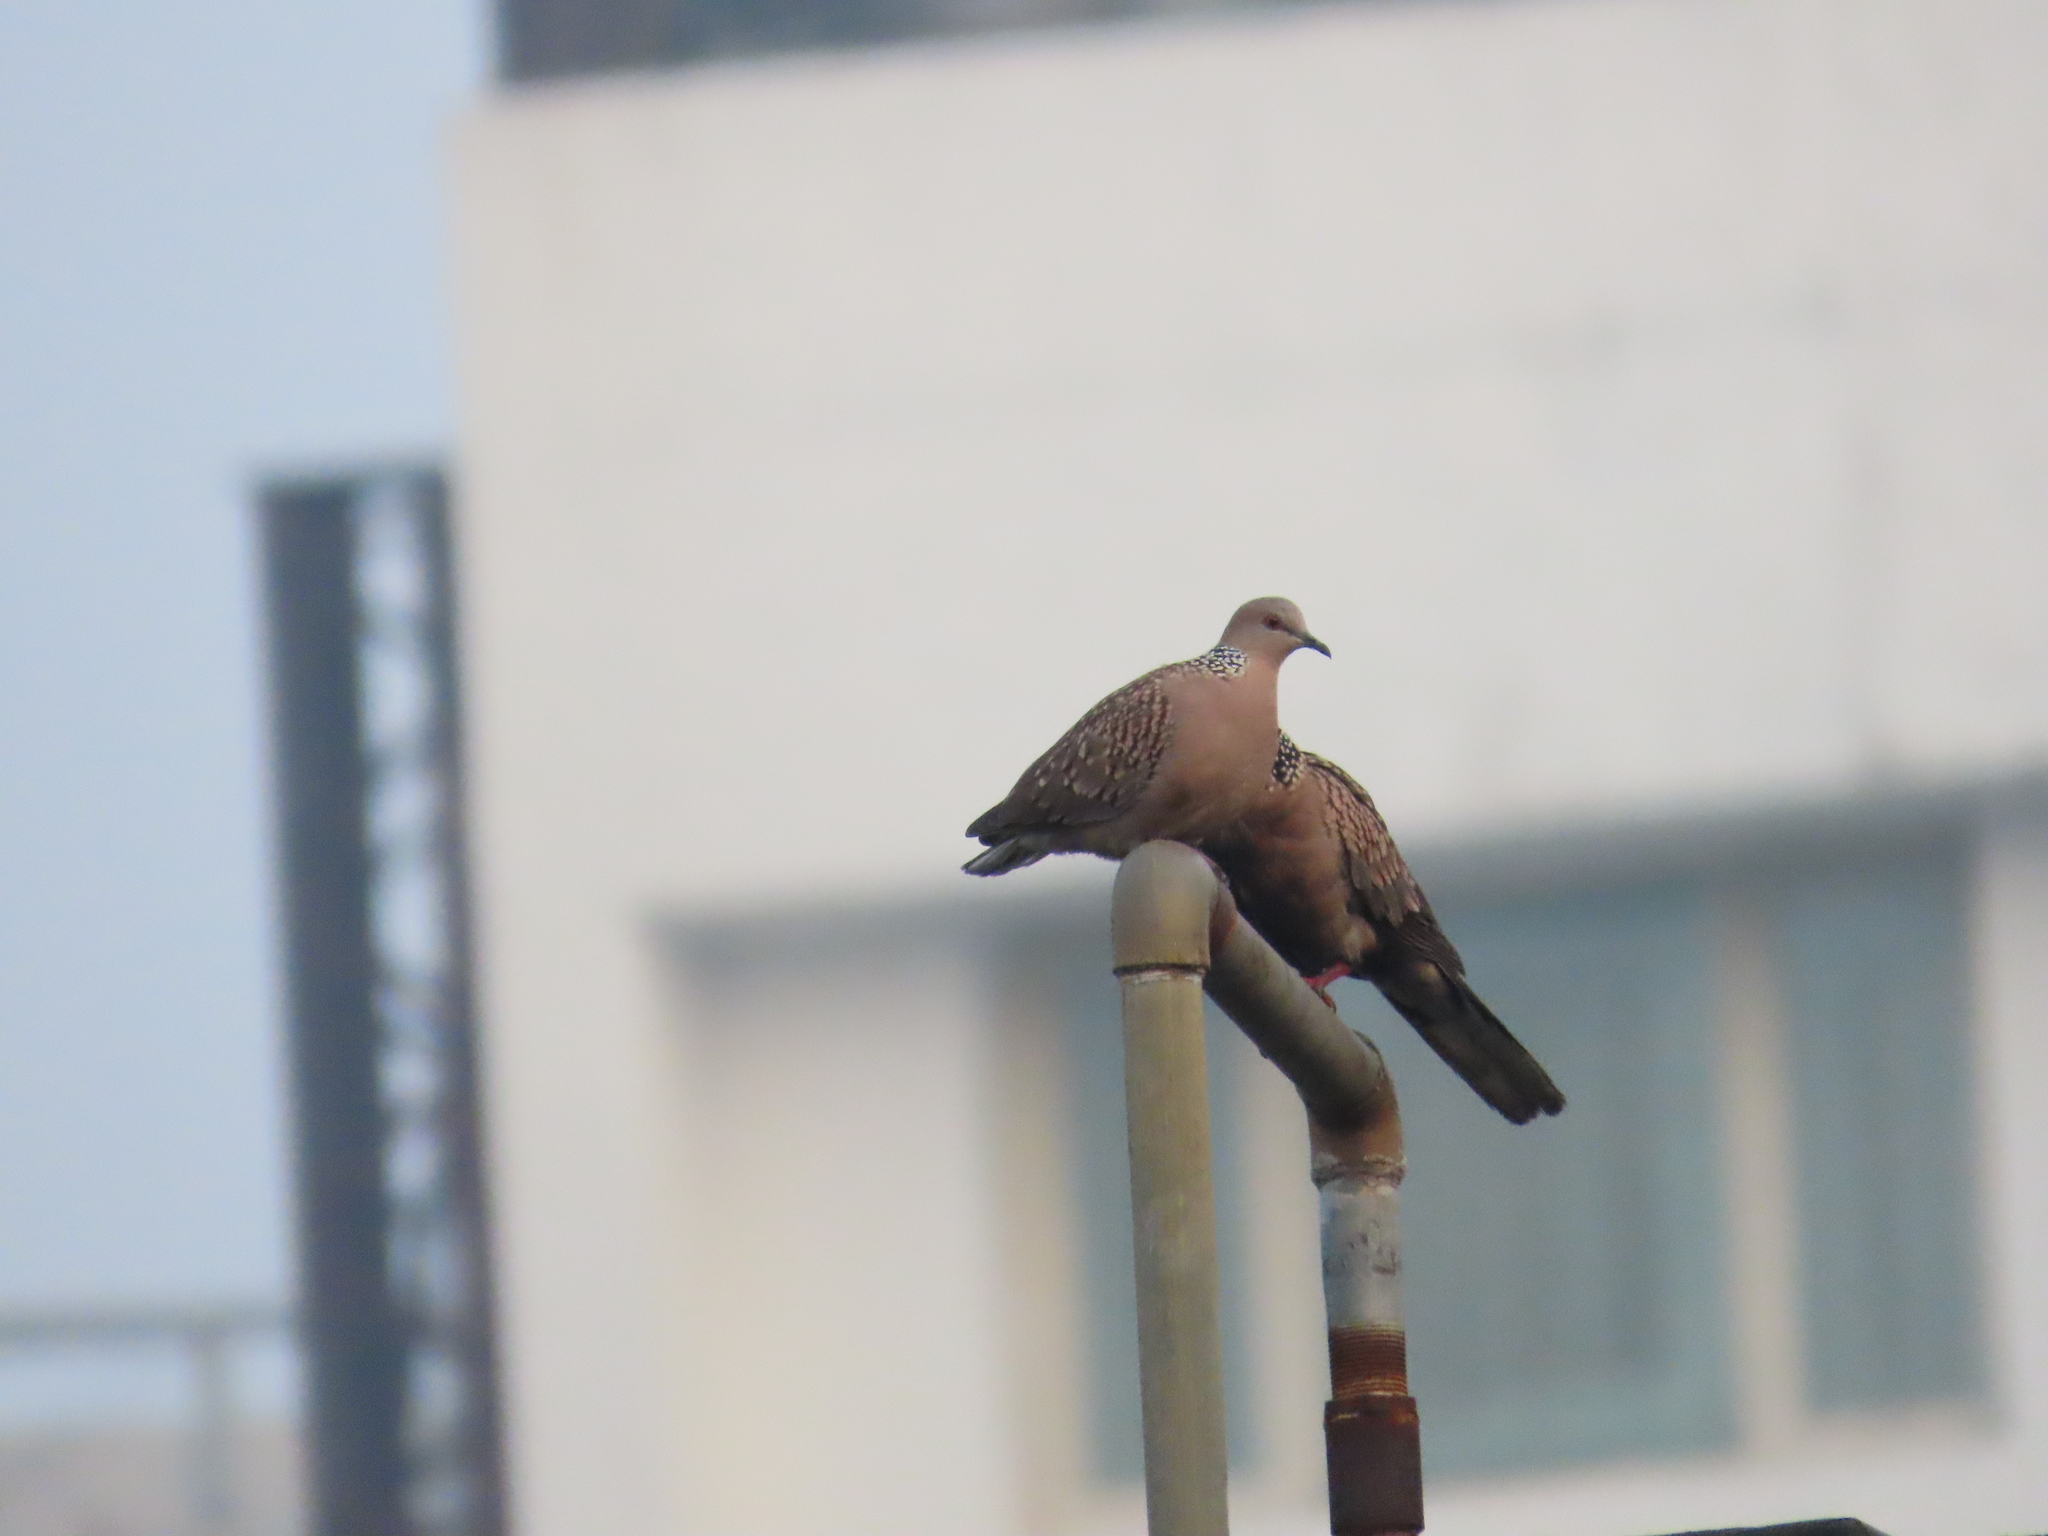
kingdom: Animalia
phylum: Chordata
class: Aves
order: Columbiformes
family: Columbidae
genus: Spilopelia
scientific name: Spilopelia chinensis
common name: Spotted dove
